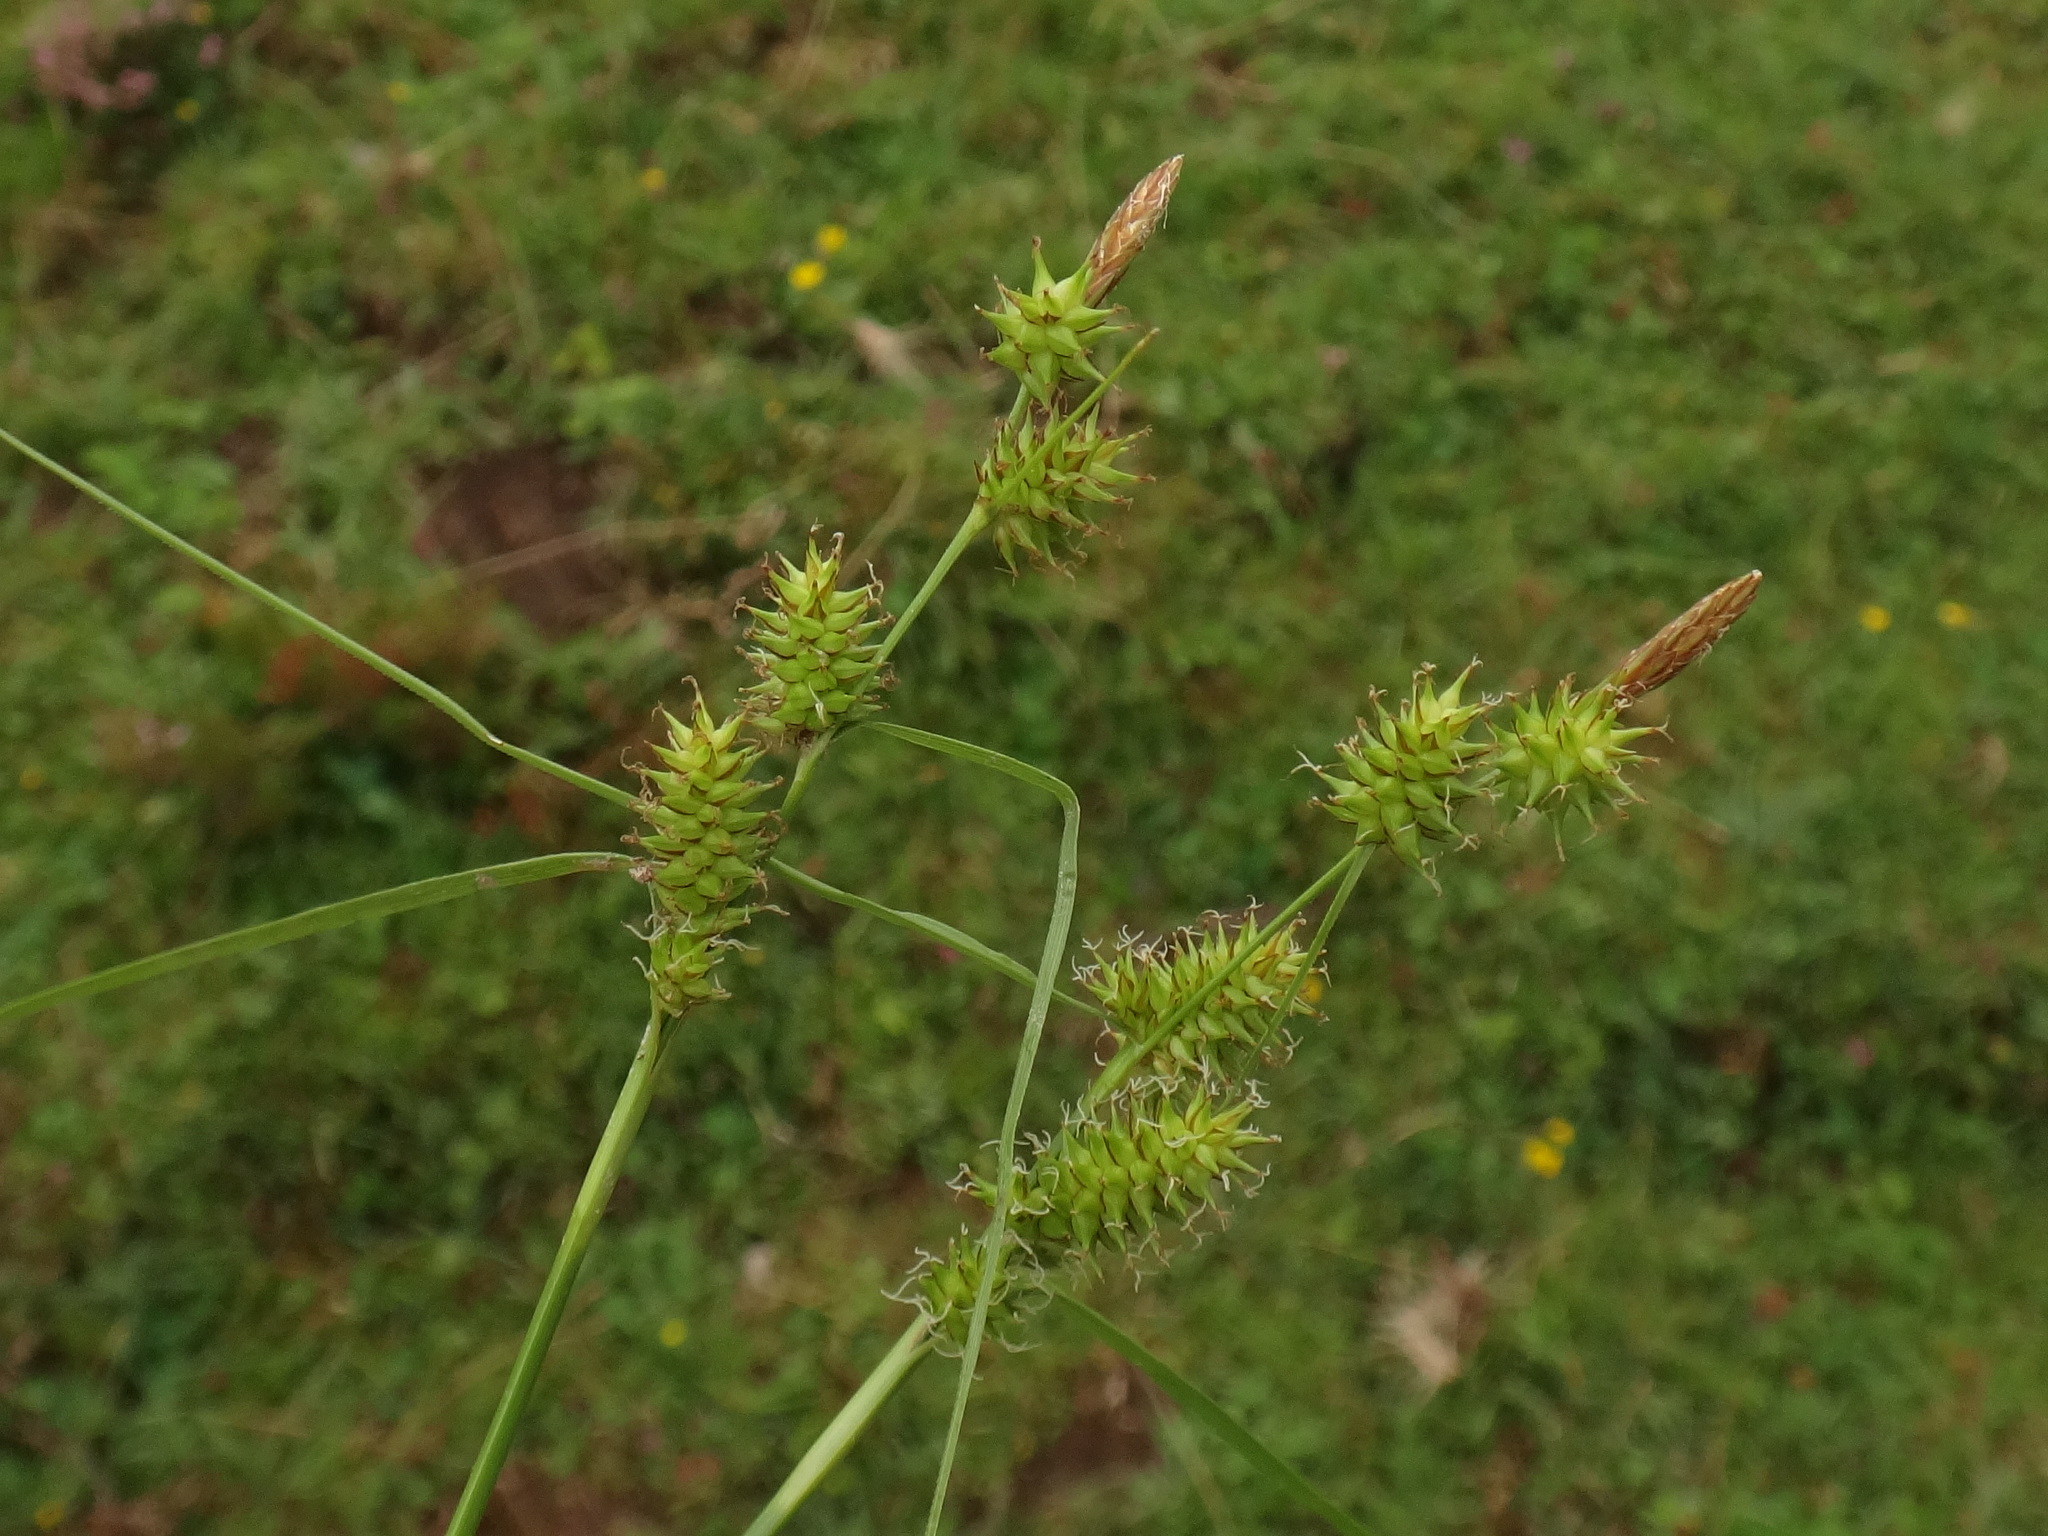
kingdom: Plantae
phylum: Tracheophyta
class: Liliopsida
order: Poales
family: Cyperaceae
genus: Carex
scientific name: Carex demissa
